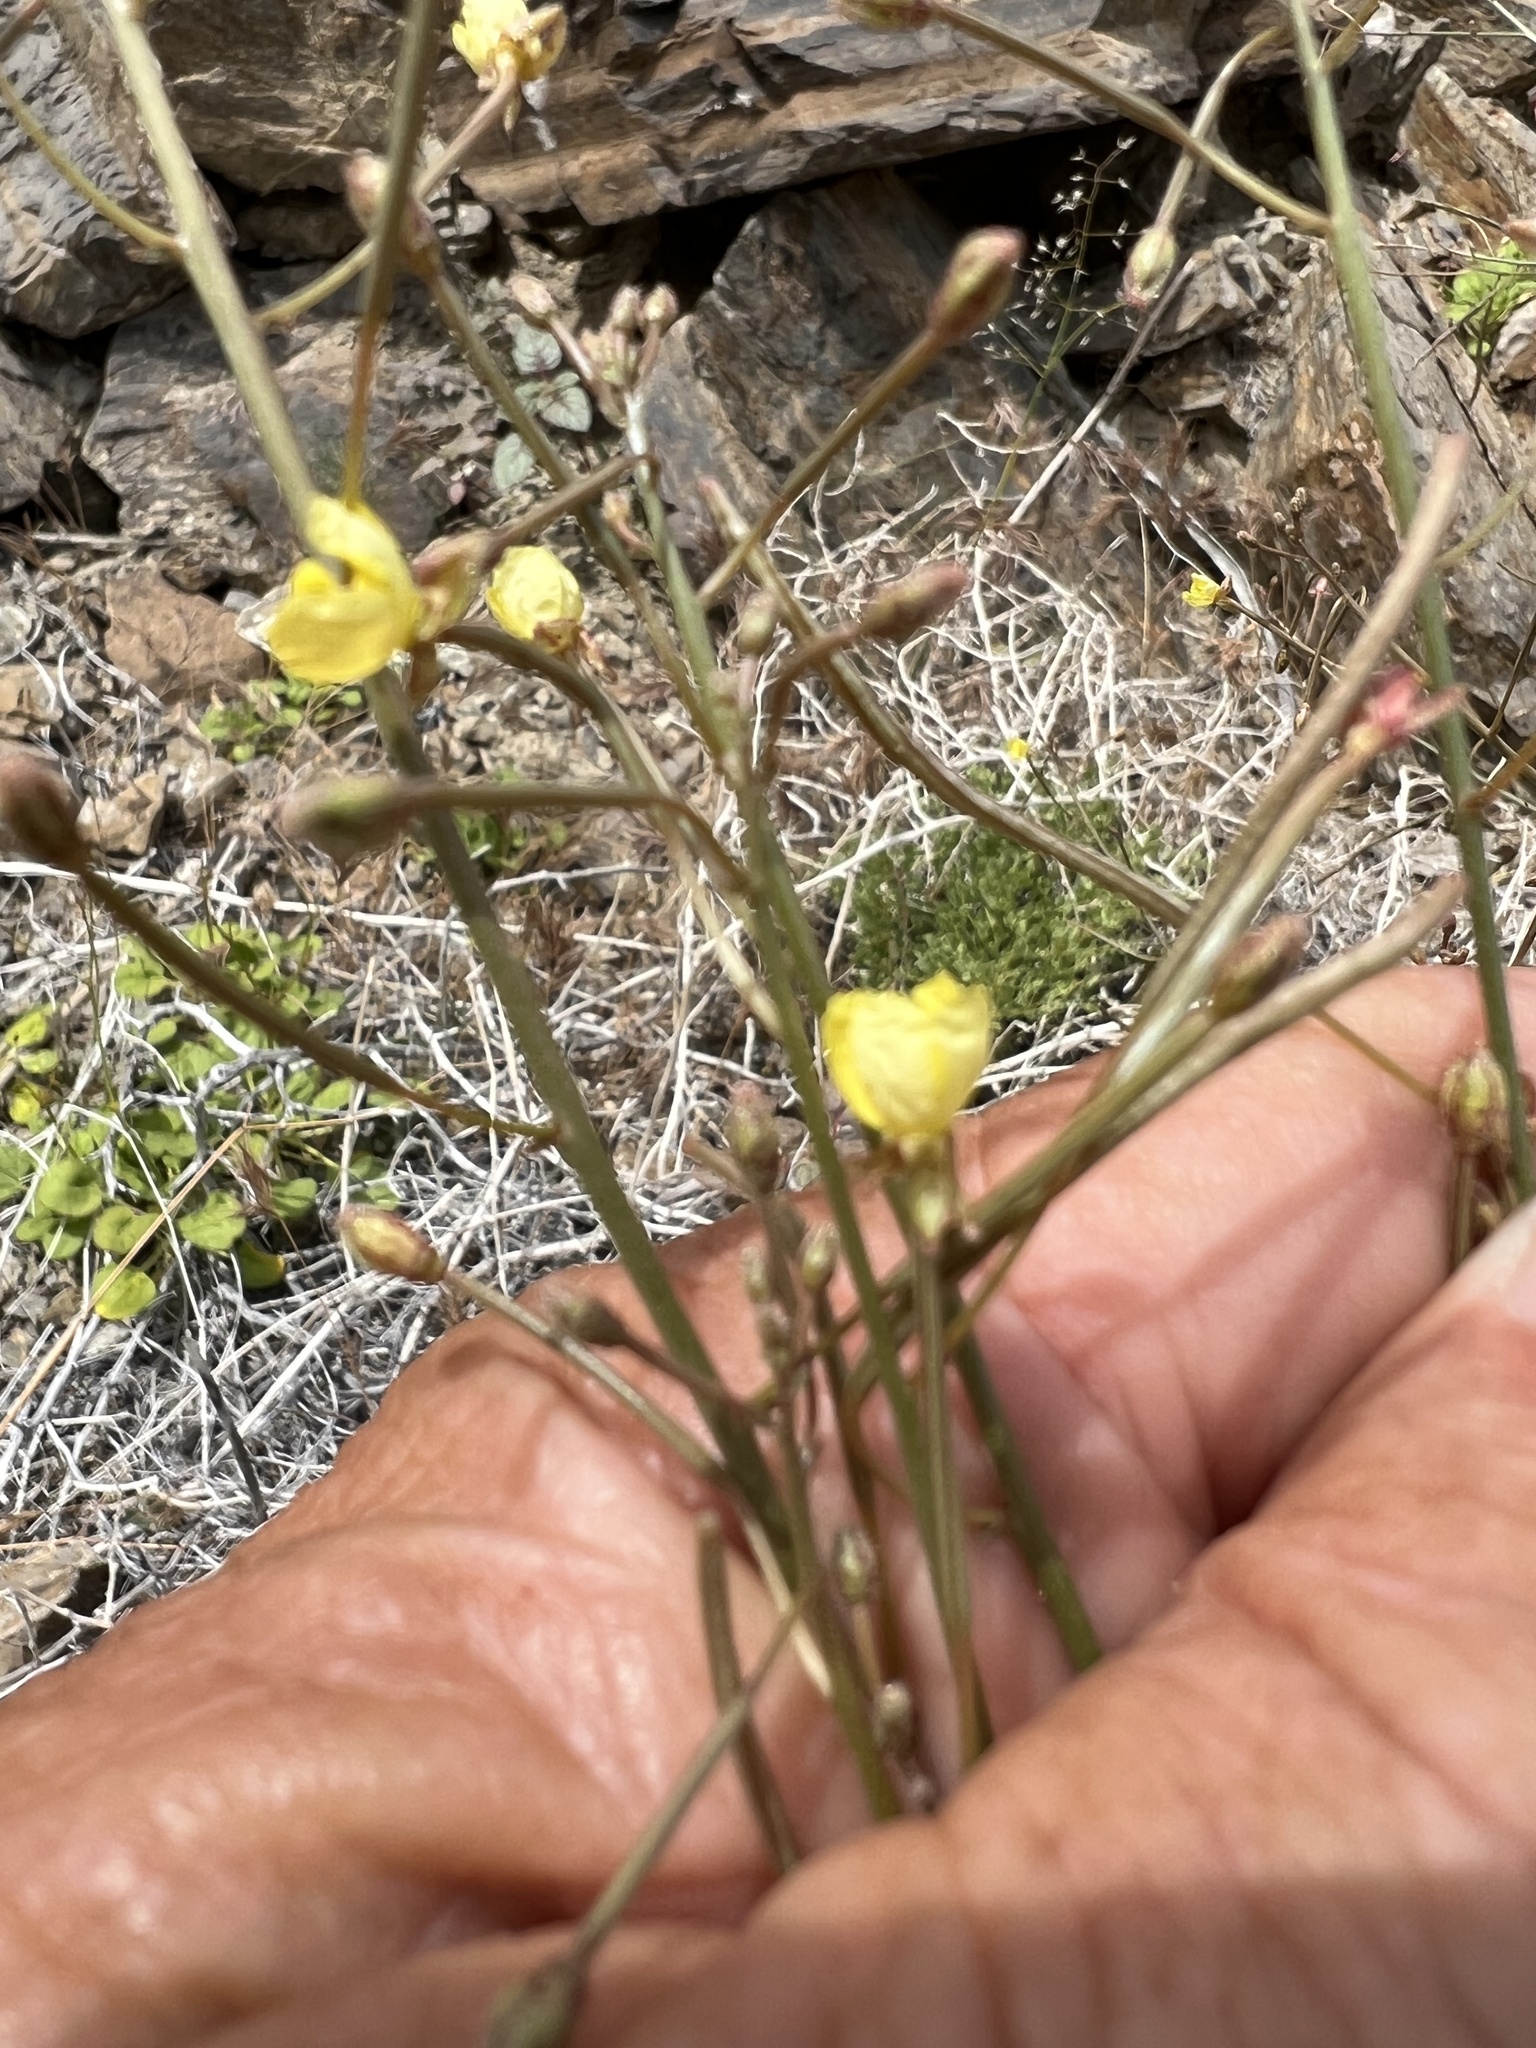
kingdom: Plantae
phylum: Tracheophyta
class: Magnoliopsida
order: Myrtales
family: Onagraceae
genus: Chylismia
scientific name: Chylismia walkeri
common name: Walker's suncup
